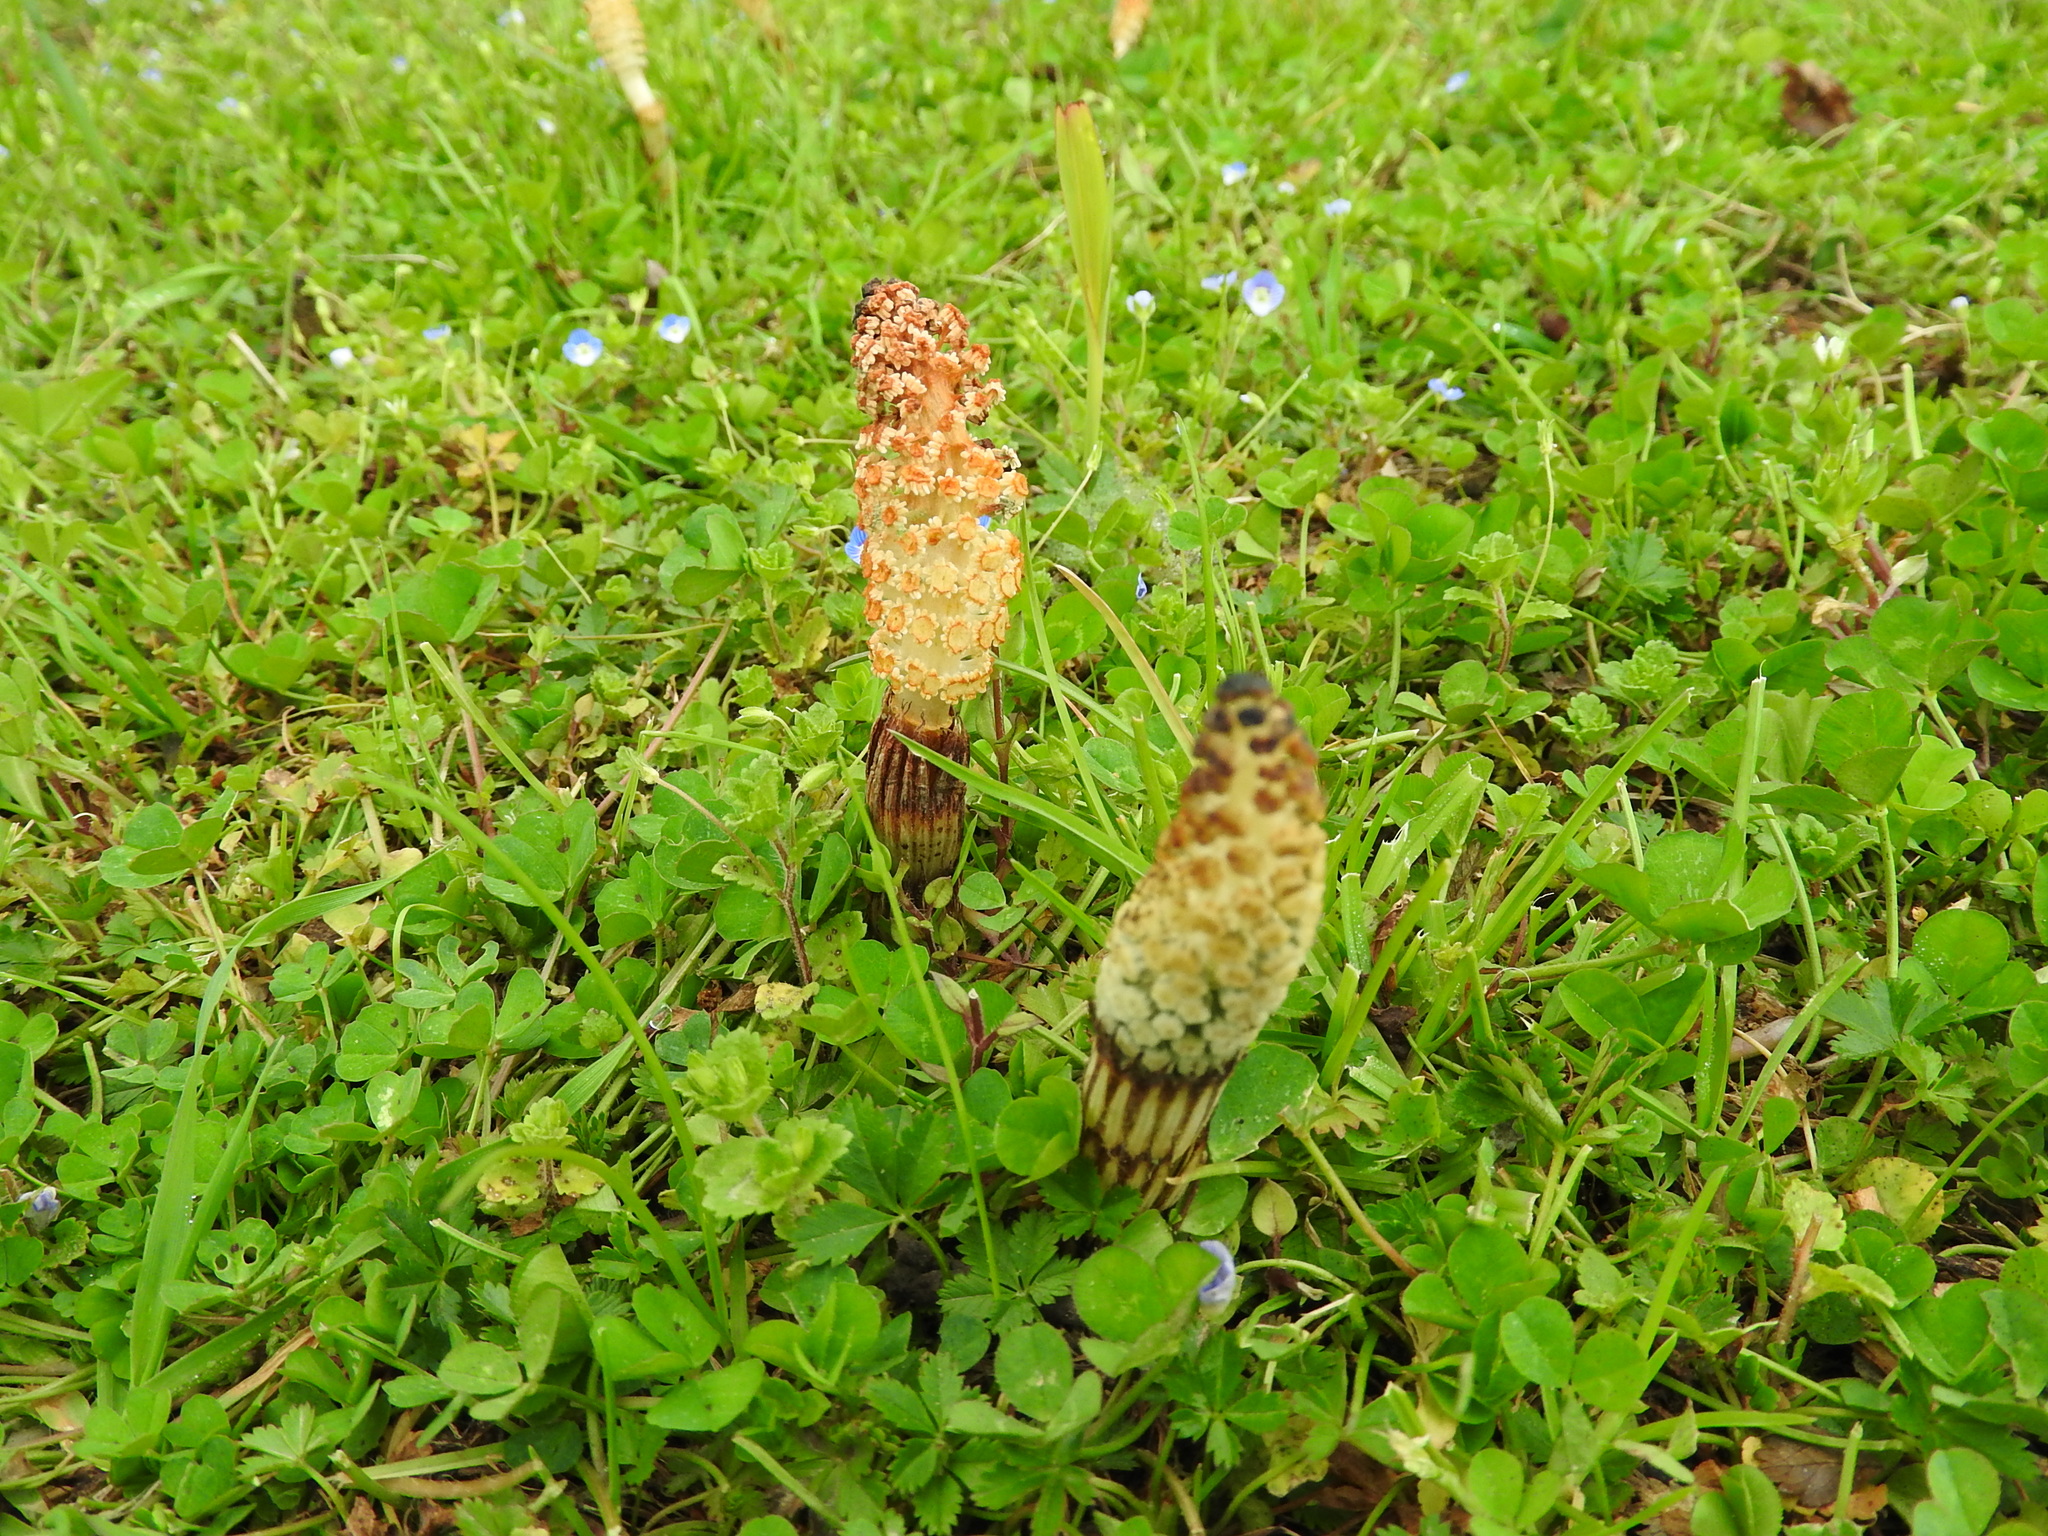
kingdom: Plantae
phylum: Tracheophyta
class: Polypodiopsida
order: Equisetales
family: Equisetaceae
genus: Equisetum
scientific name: Equisetum telmateia
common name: Great horsetail
